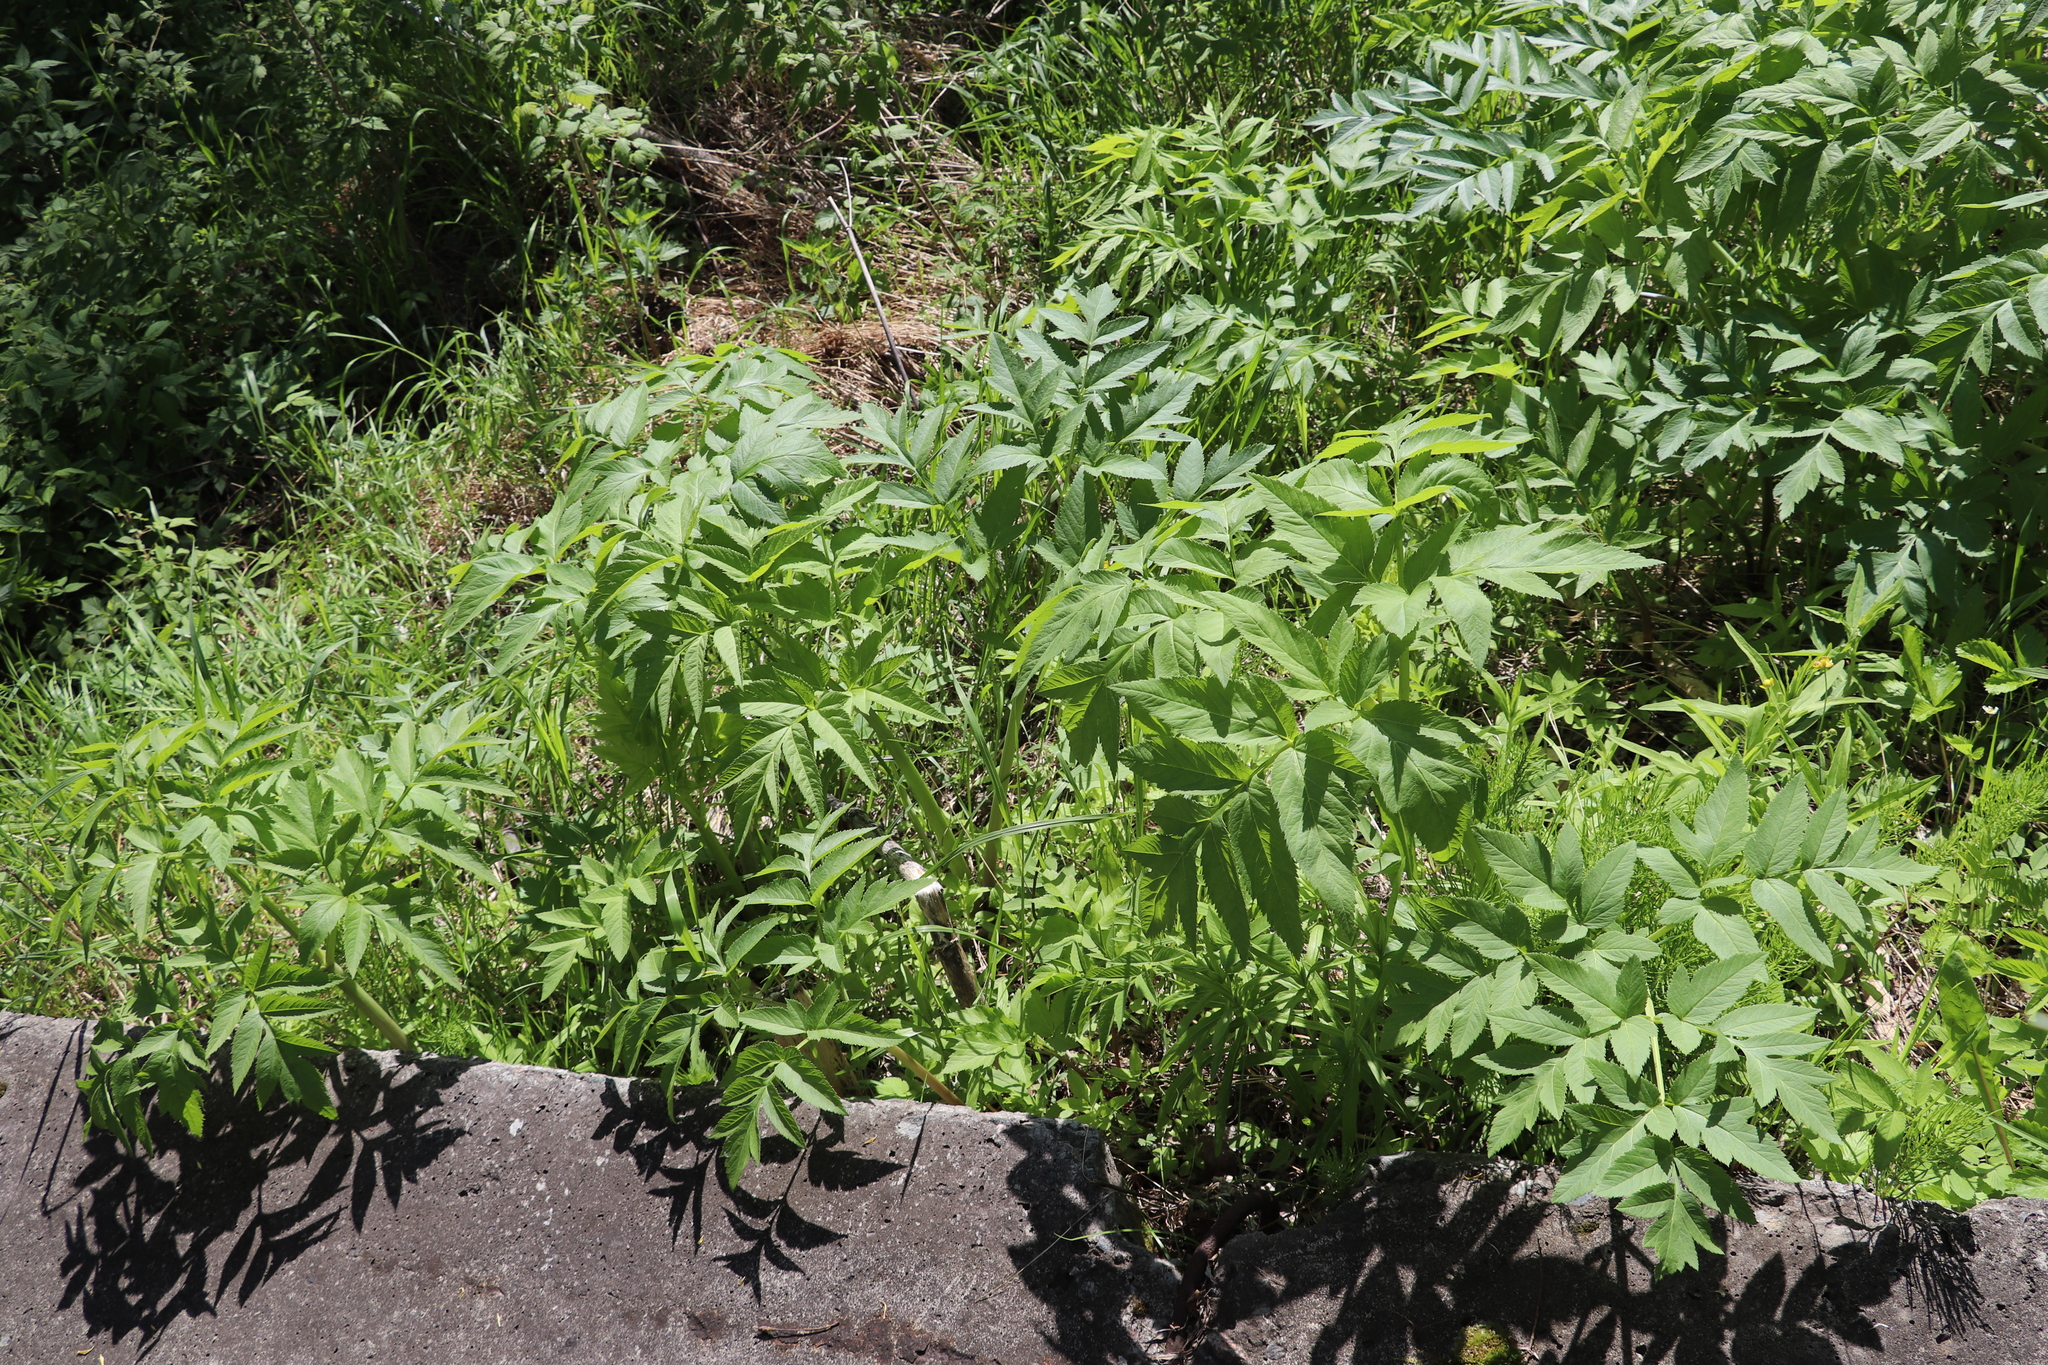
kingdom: Plantae
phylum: Tracheophyta
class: Magnoliopsida
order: Apiales
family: Apiaceae
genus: Angelica
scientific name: Angelica decurrens
